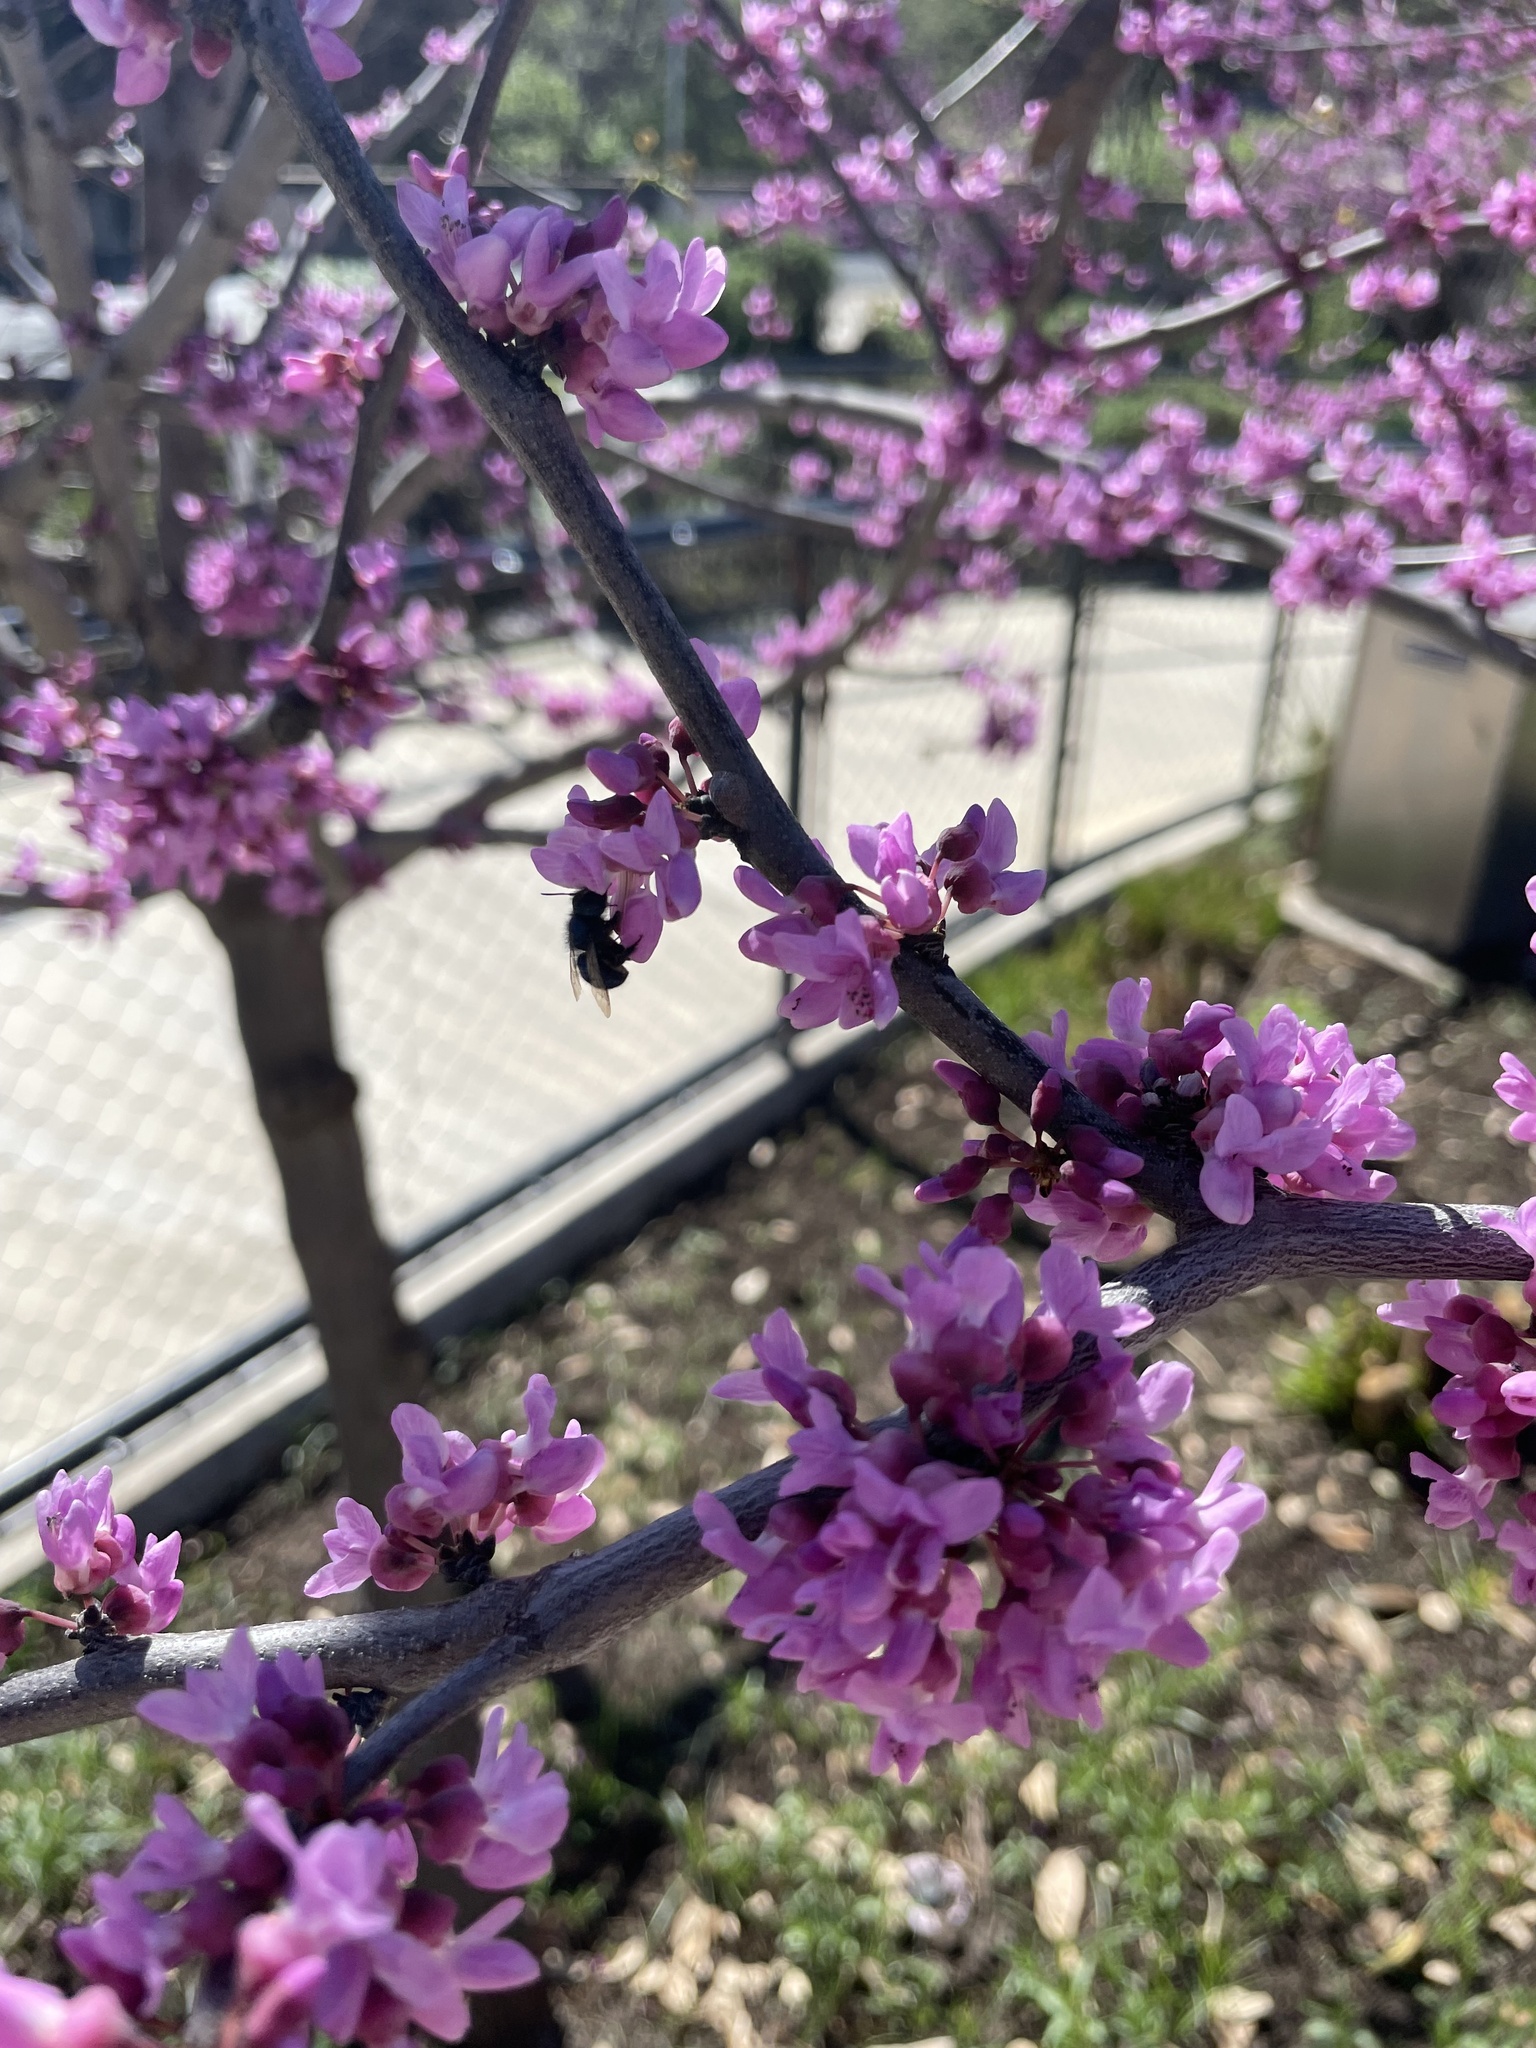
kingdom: Animalia
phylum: Arthropoda
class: Insecta
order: Hymenoptera
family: Megachilidae
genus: Osmia
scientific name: Osmia ribifloris
